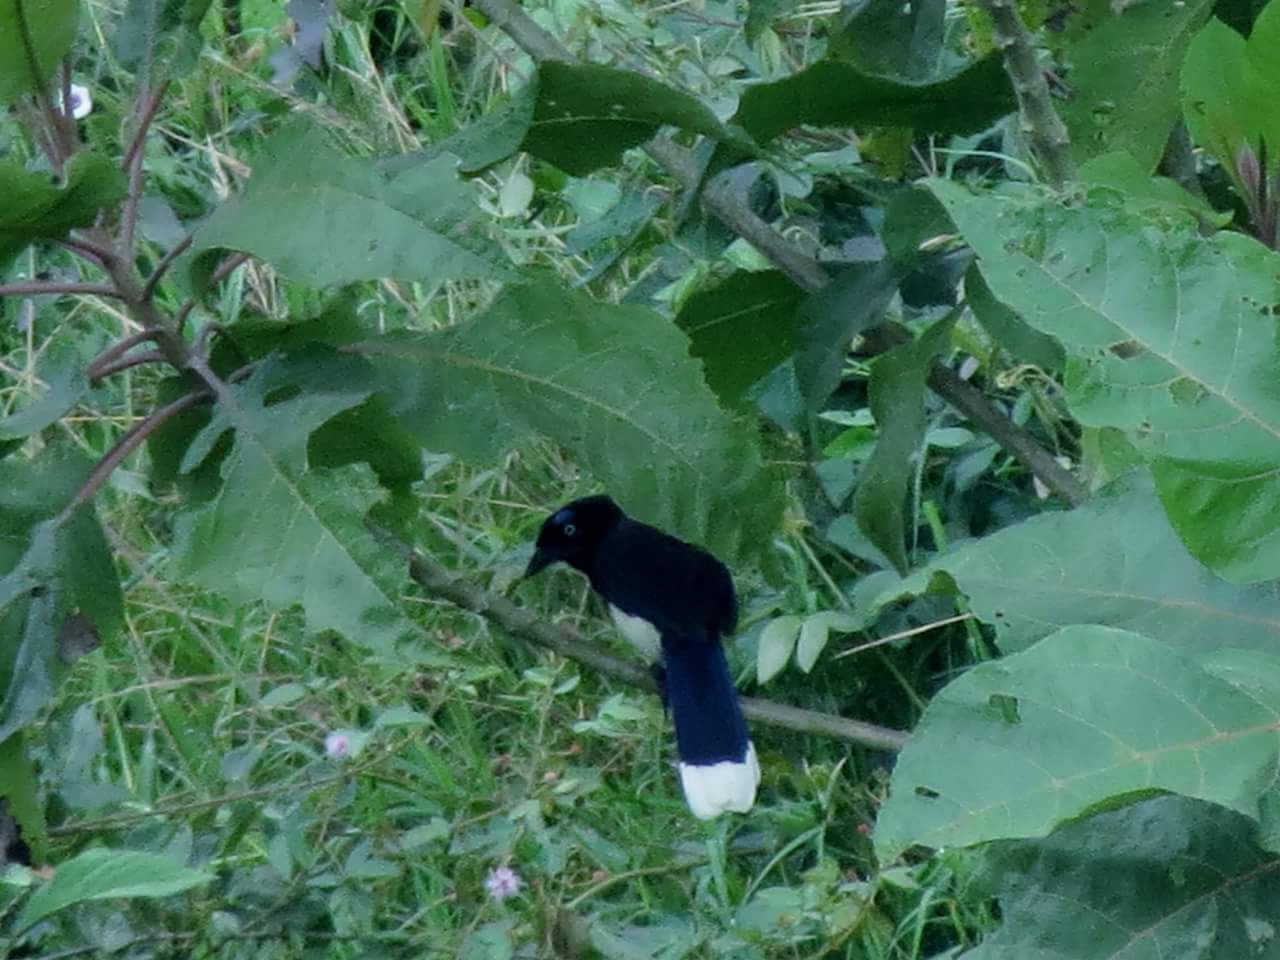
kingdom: Animalia
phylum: Chordata
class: Aves
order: Passeriformes
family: Corvidae
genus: Cyanocorax
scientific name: Cyanocorax affinis
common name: Black-chested jay
